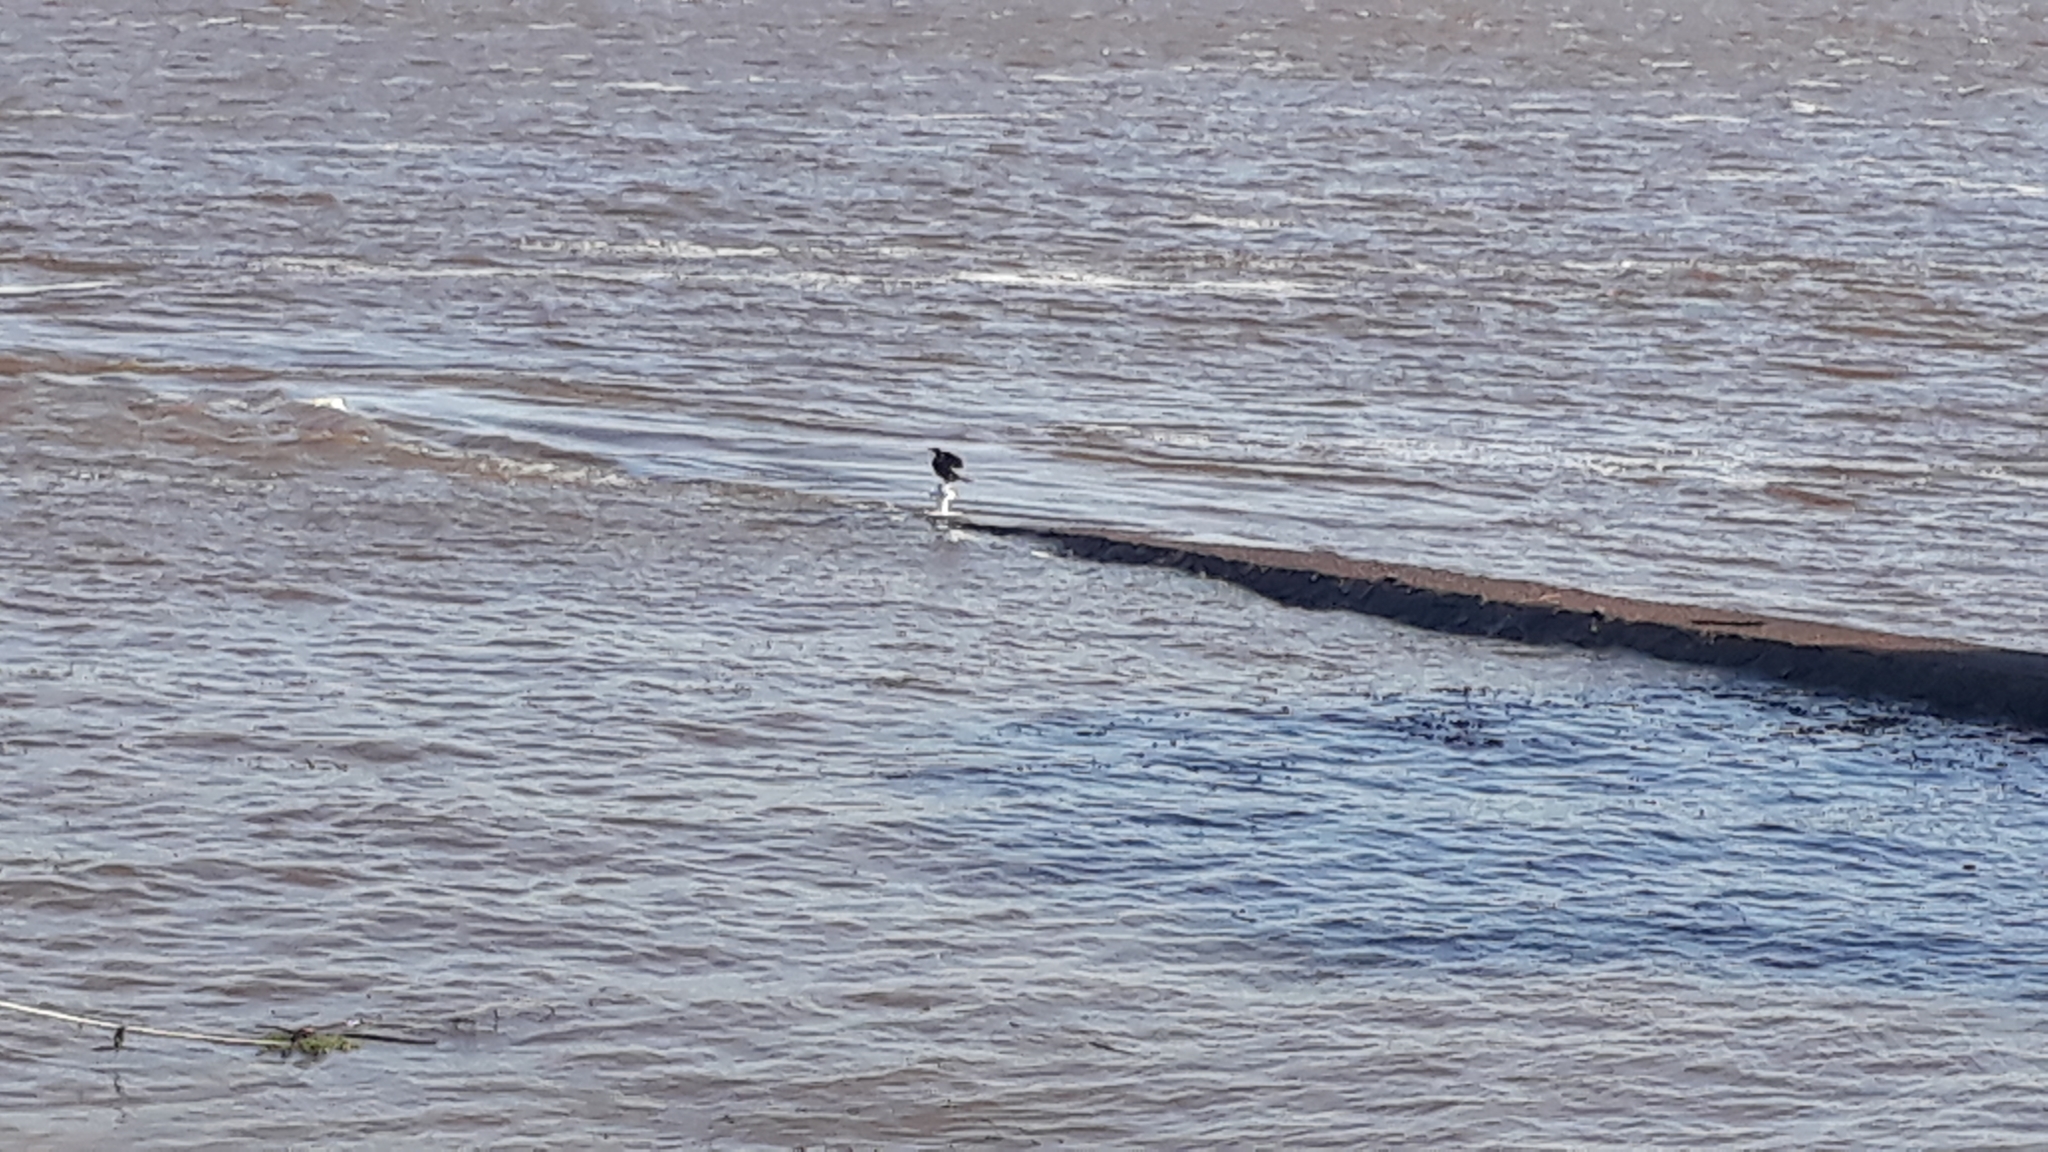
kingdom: Animalia
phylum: Chordata
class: Aves
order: Suliformes
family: Phalacrocoracidae
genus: Phalacrocorax
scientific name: Phalacrocorax brasilianus
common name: Neotropic cormorant
